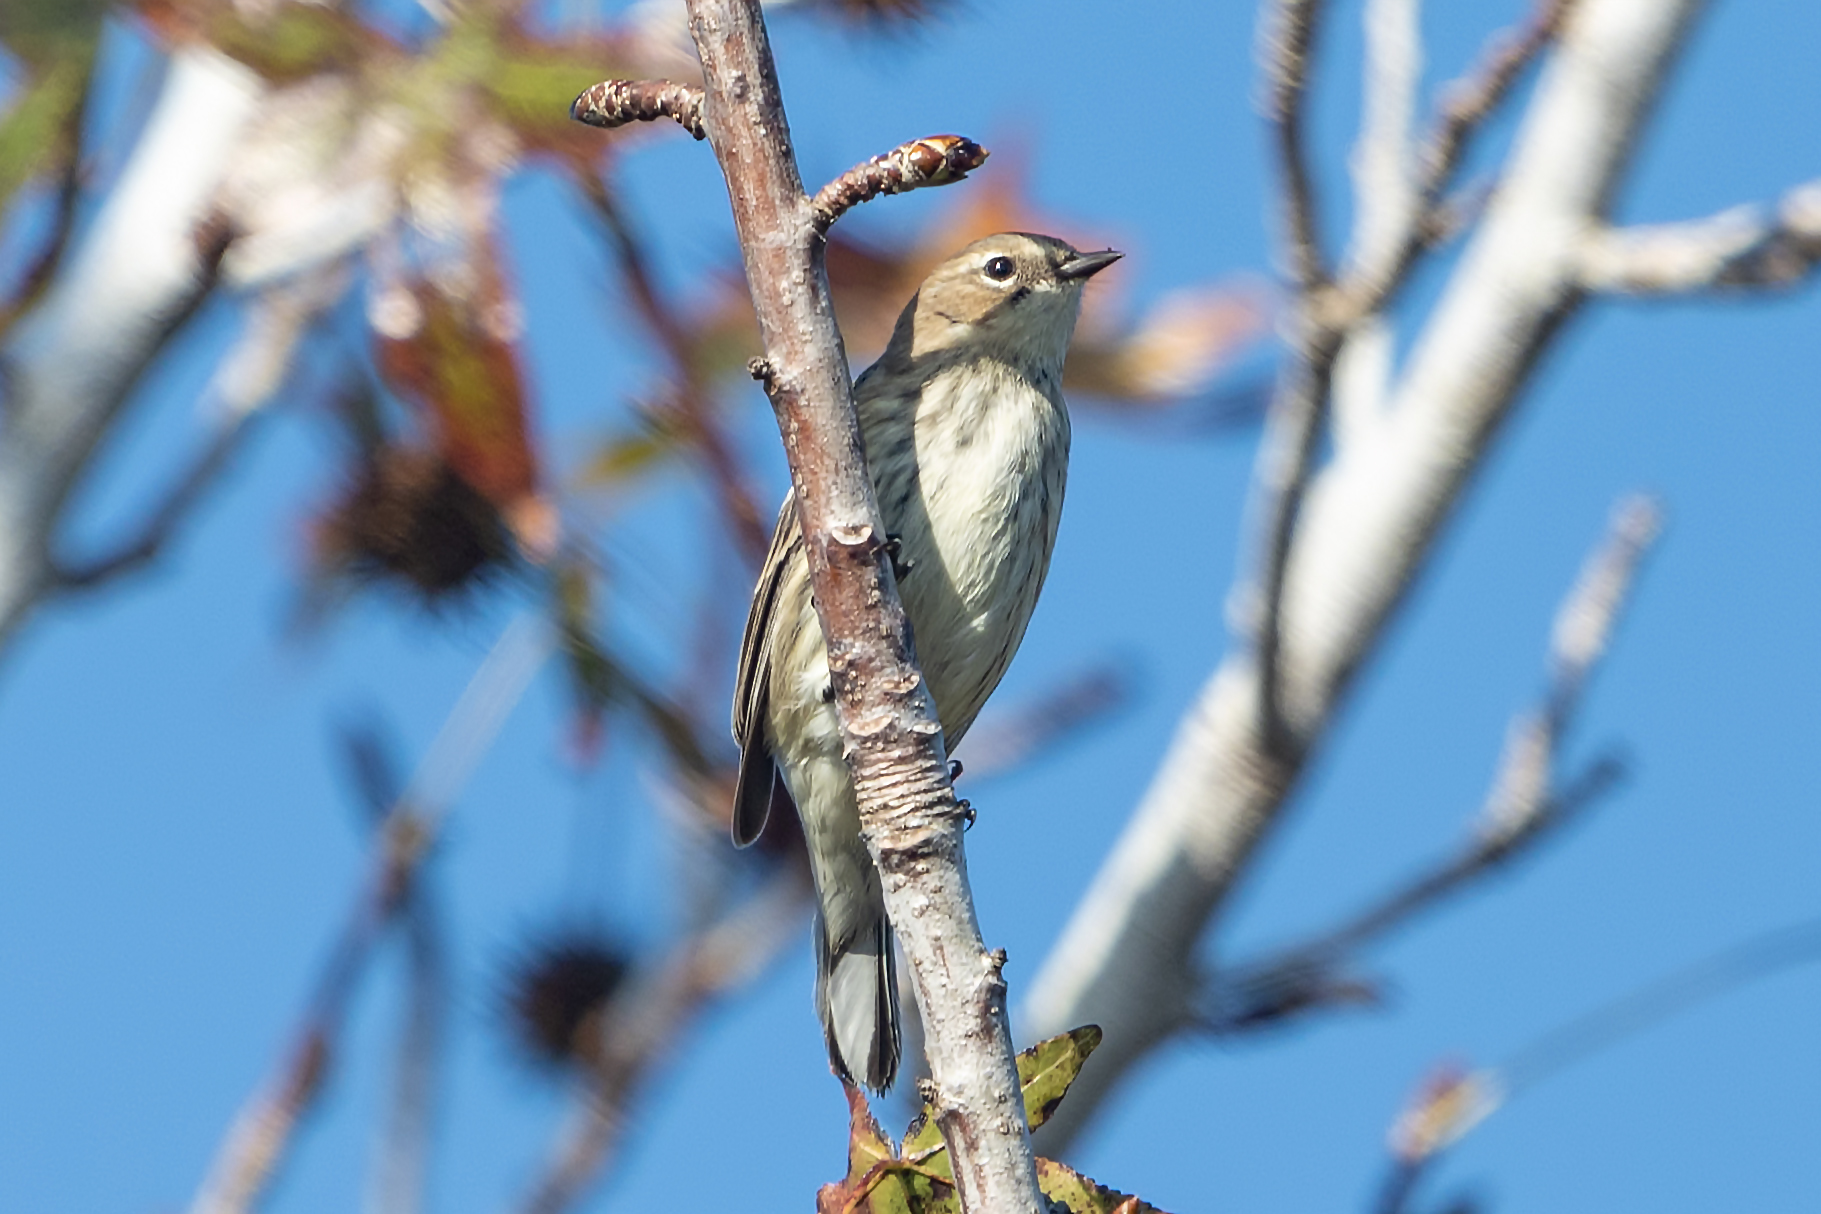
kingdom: Animalia
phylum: Chordata
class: Aves
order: Passeriformes
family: Parulidae
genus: Setophaga
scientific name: Setophaga coronata
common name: Myrtle warbler
